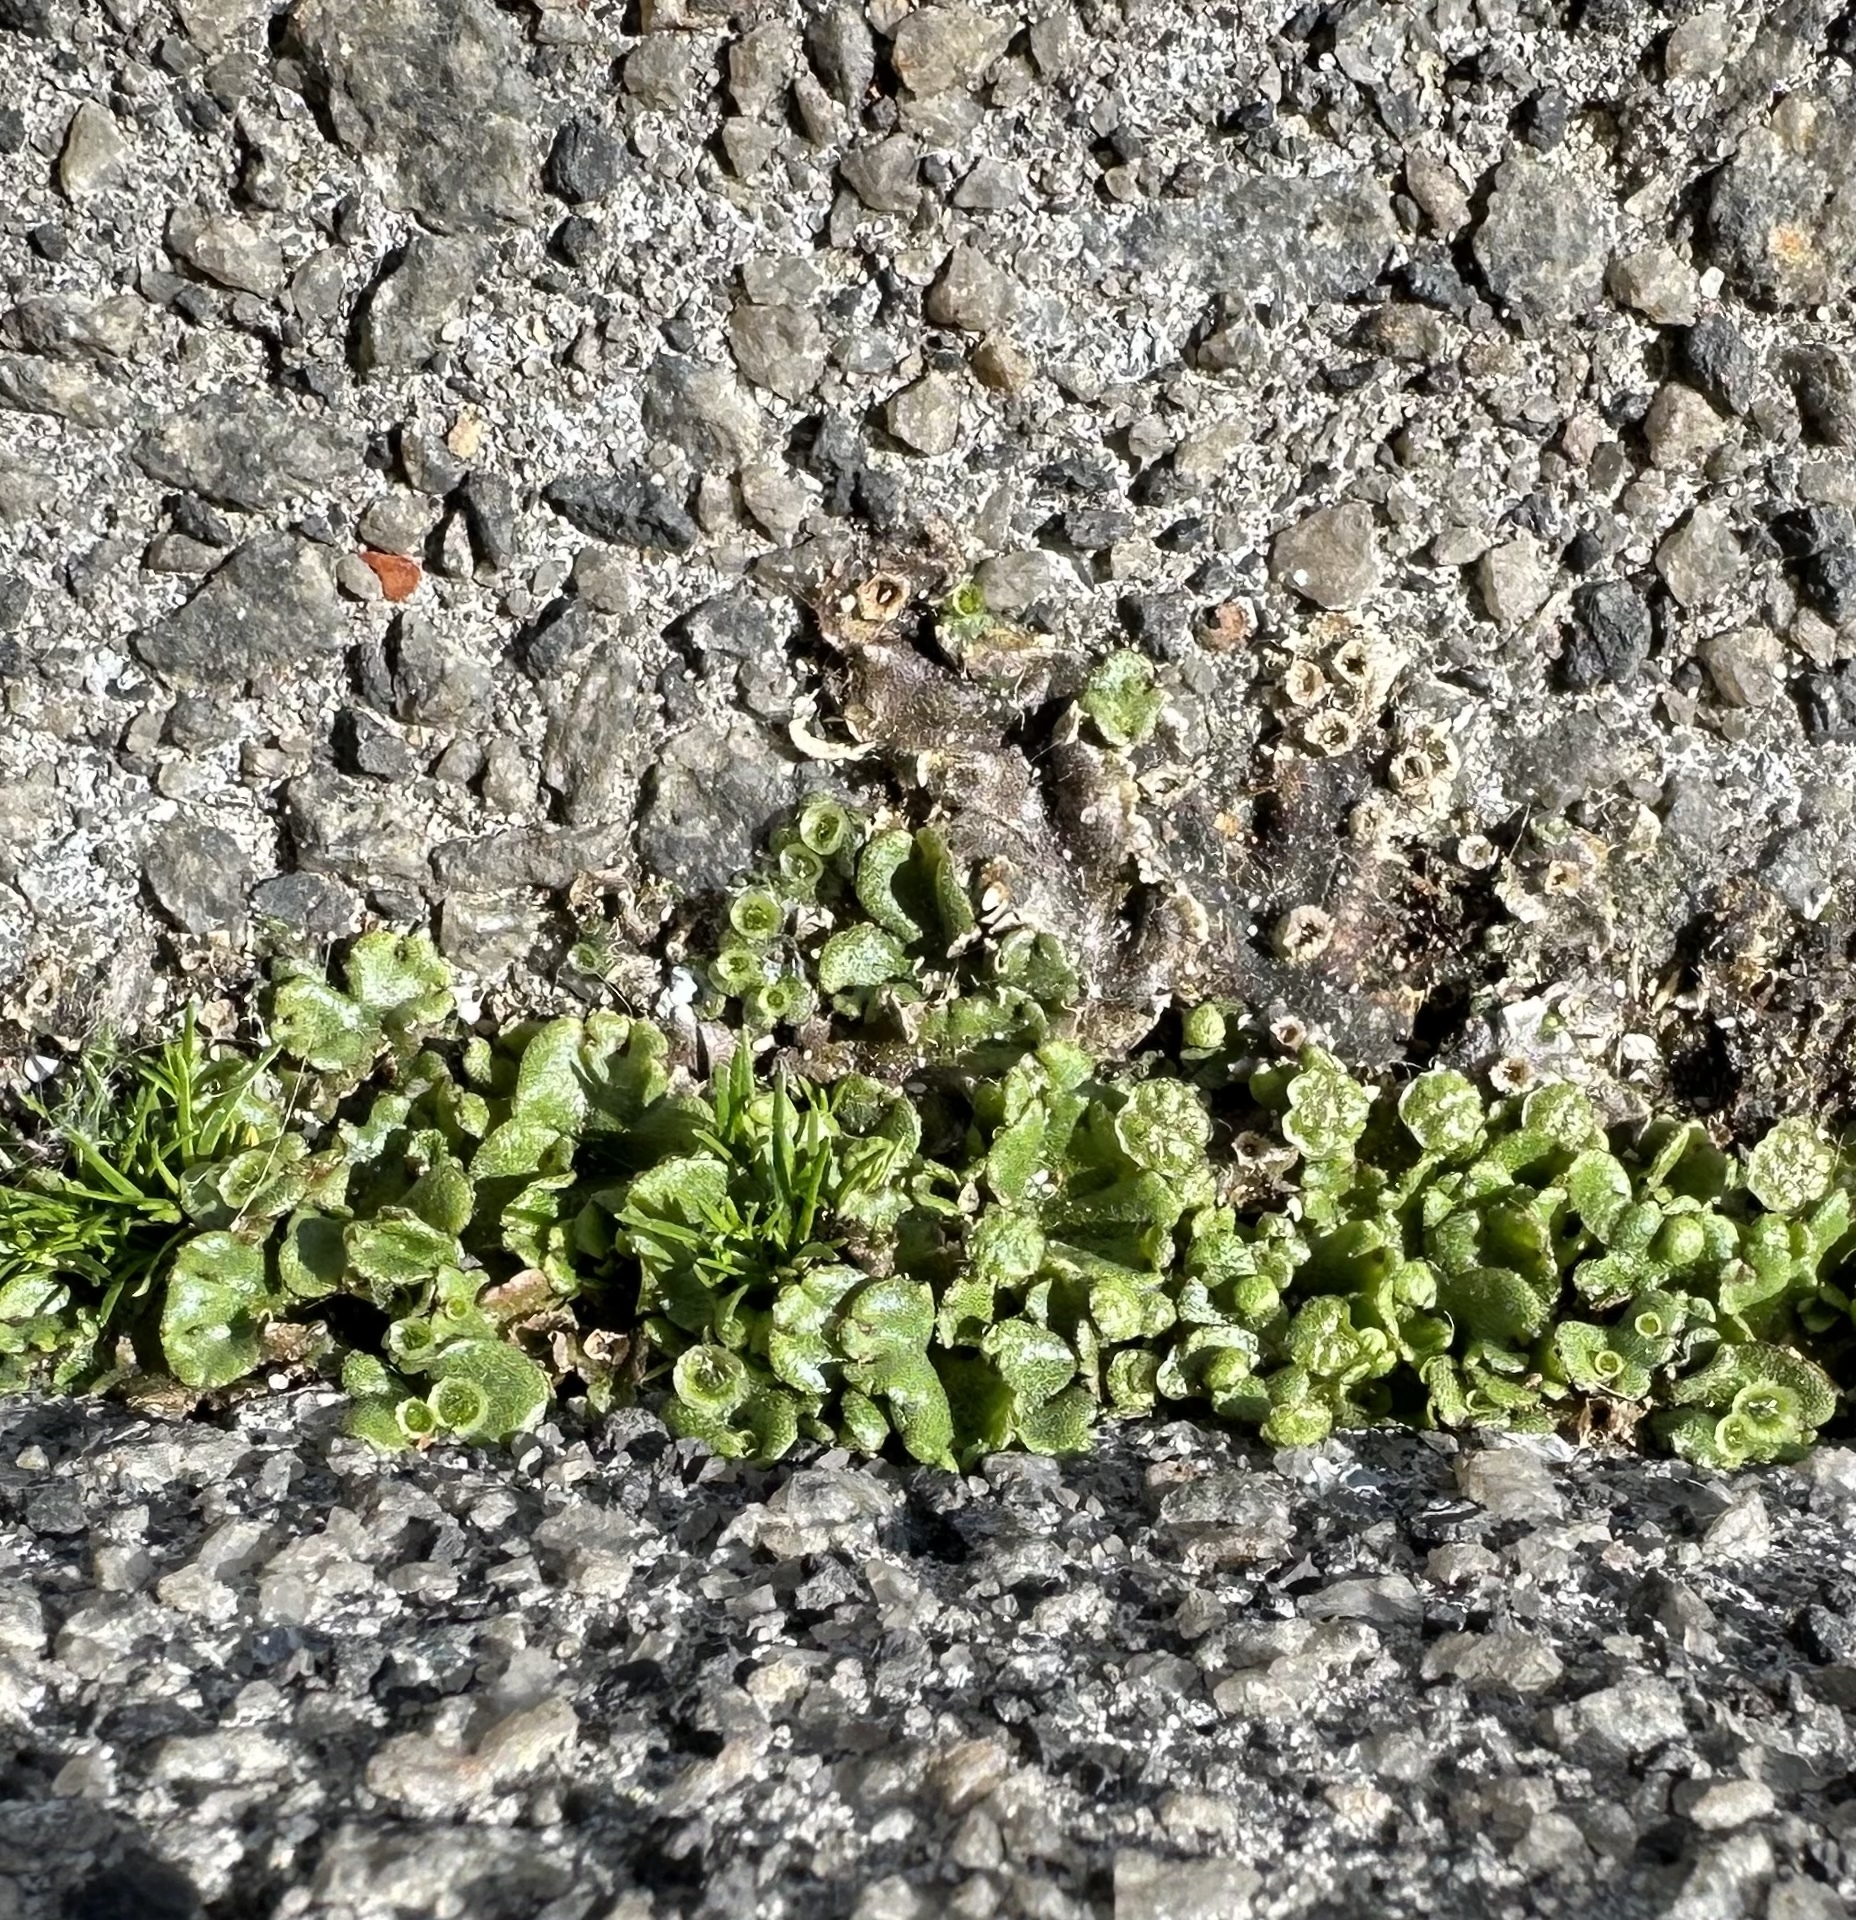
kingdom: Plantae
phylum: Marchantiophyta
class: Marchantiopsida
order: Marchantiales
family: Marchantiaceae
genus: Marchantia
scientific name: Marchantia polymorpha
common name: Common liverwort
